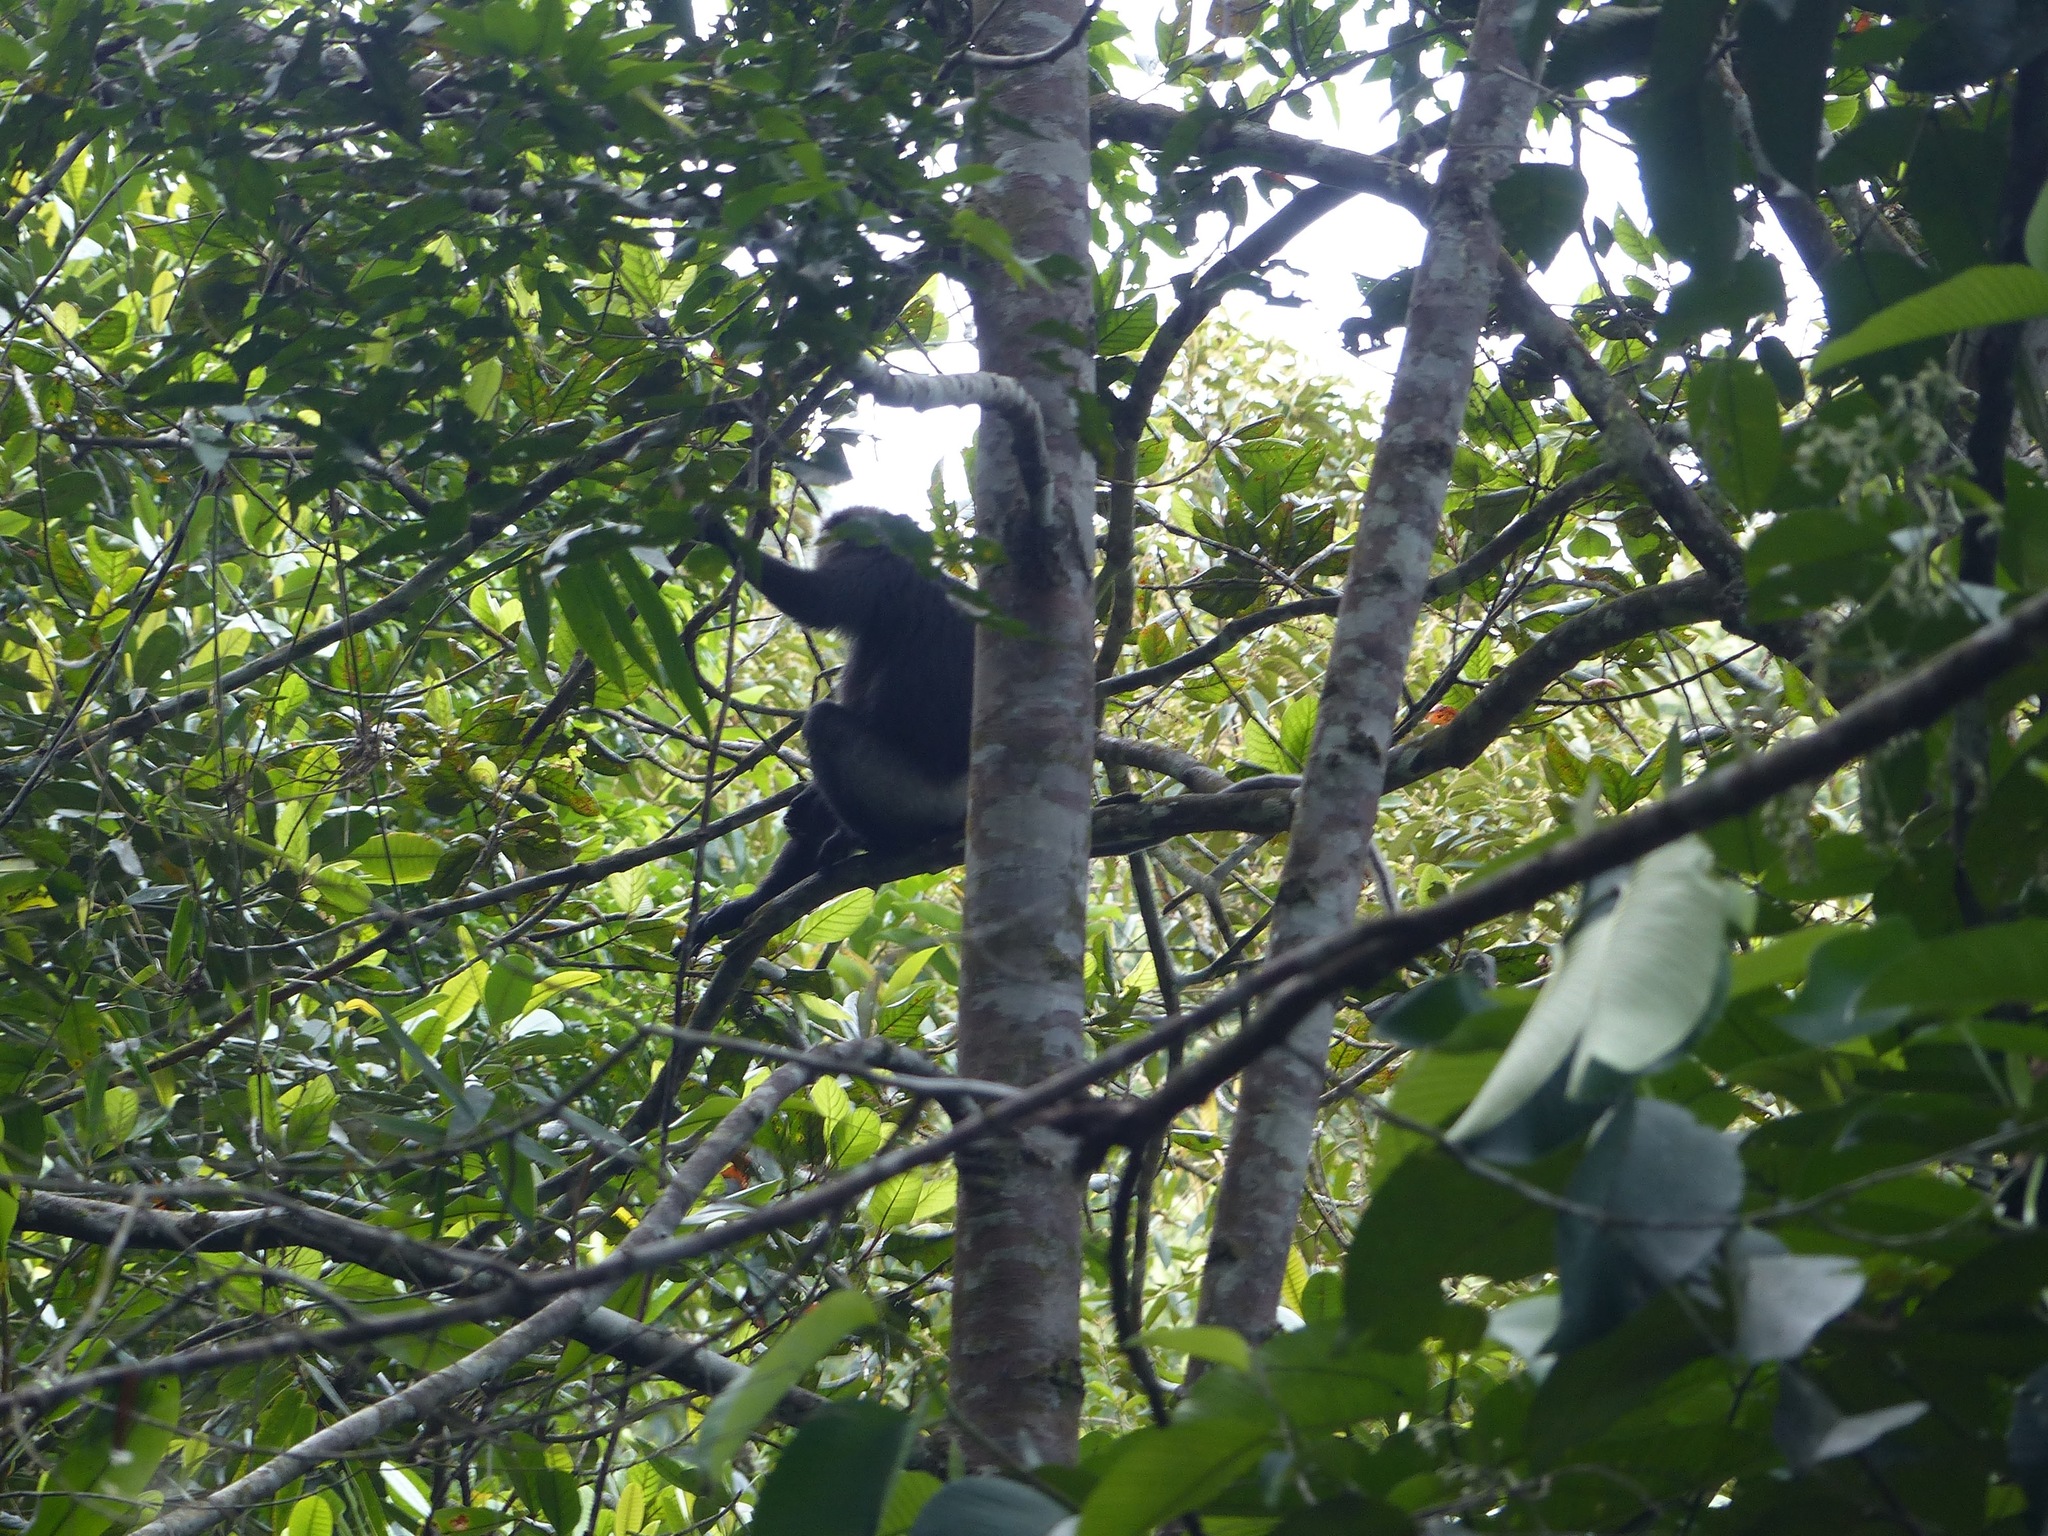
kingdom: Animalia
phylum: Chordata
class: Mammalia
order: Primates
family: Cercopithecidae
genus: Semnopithecus
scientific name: Semnopithecus vetulus
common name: Purple-faced langur
